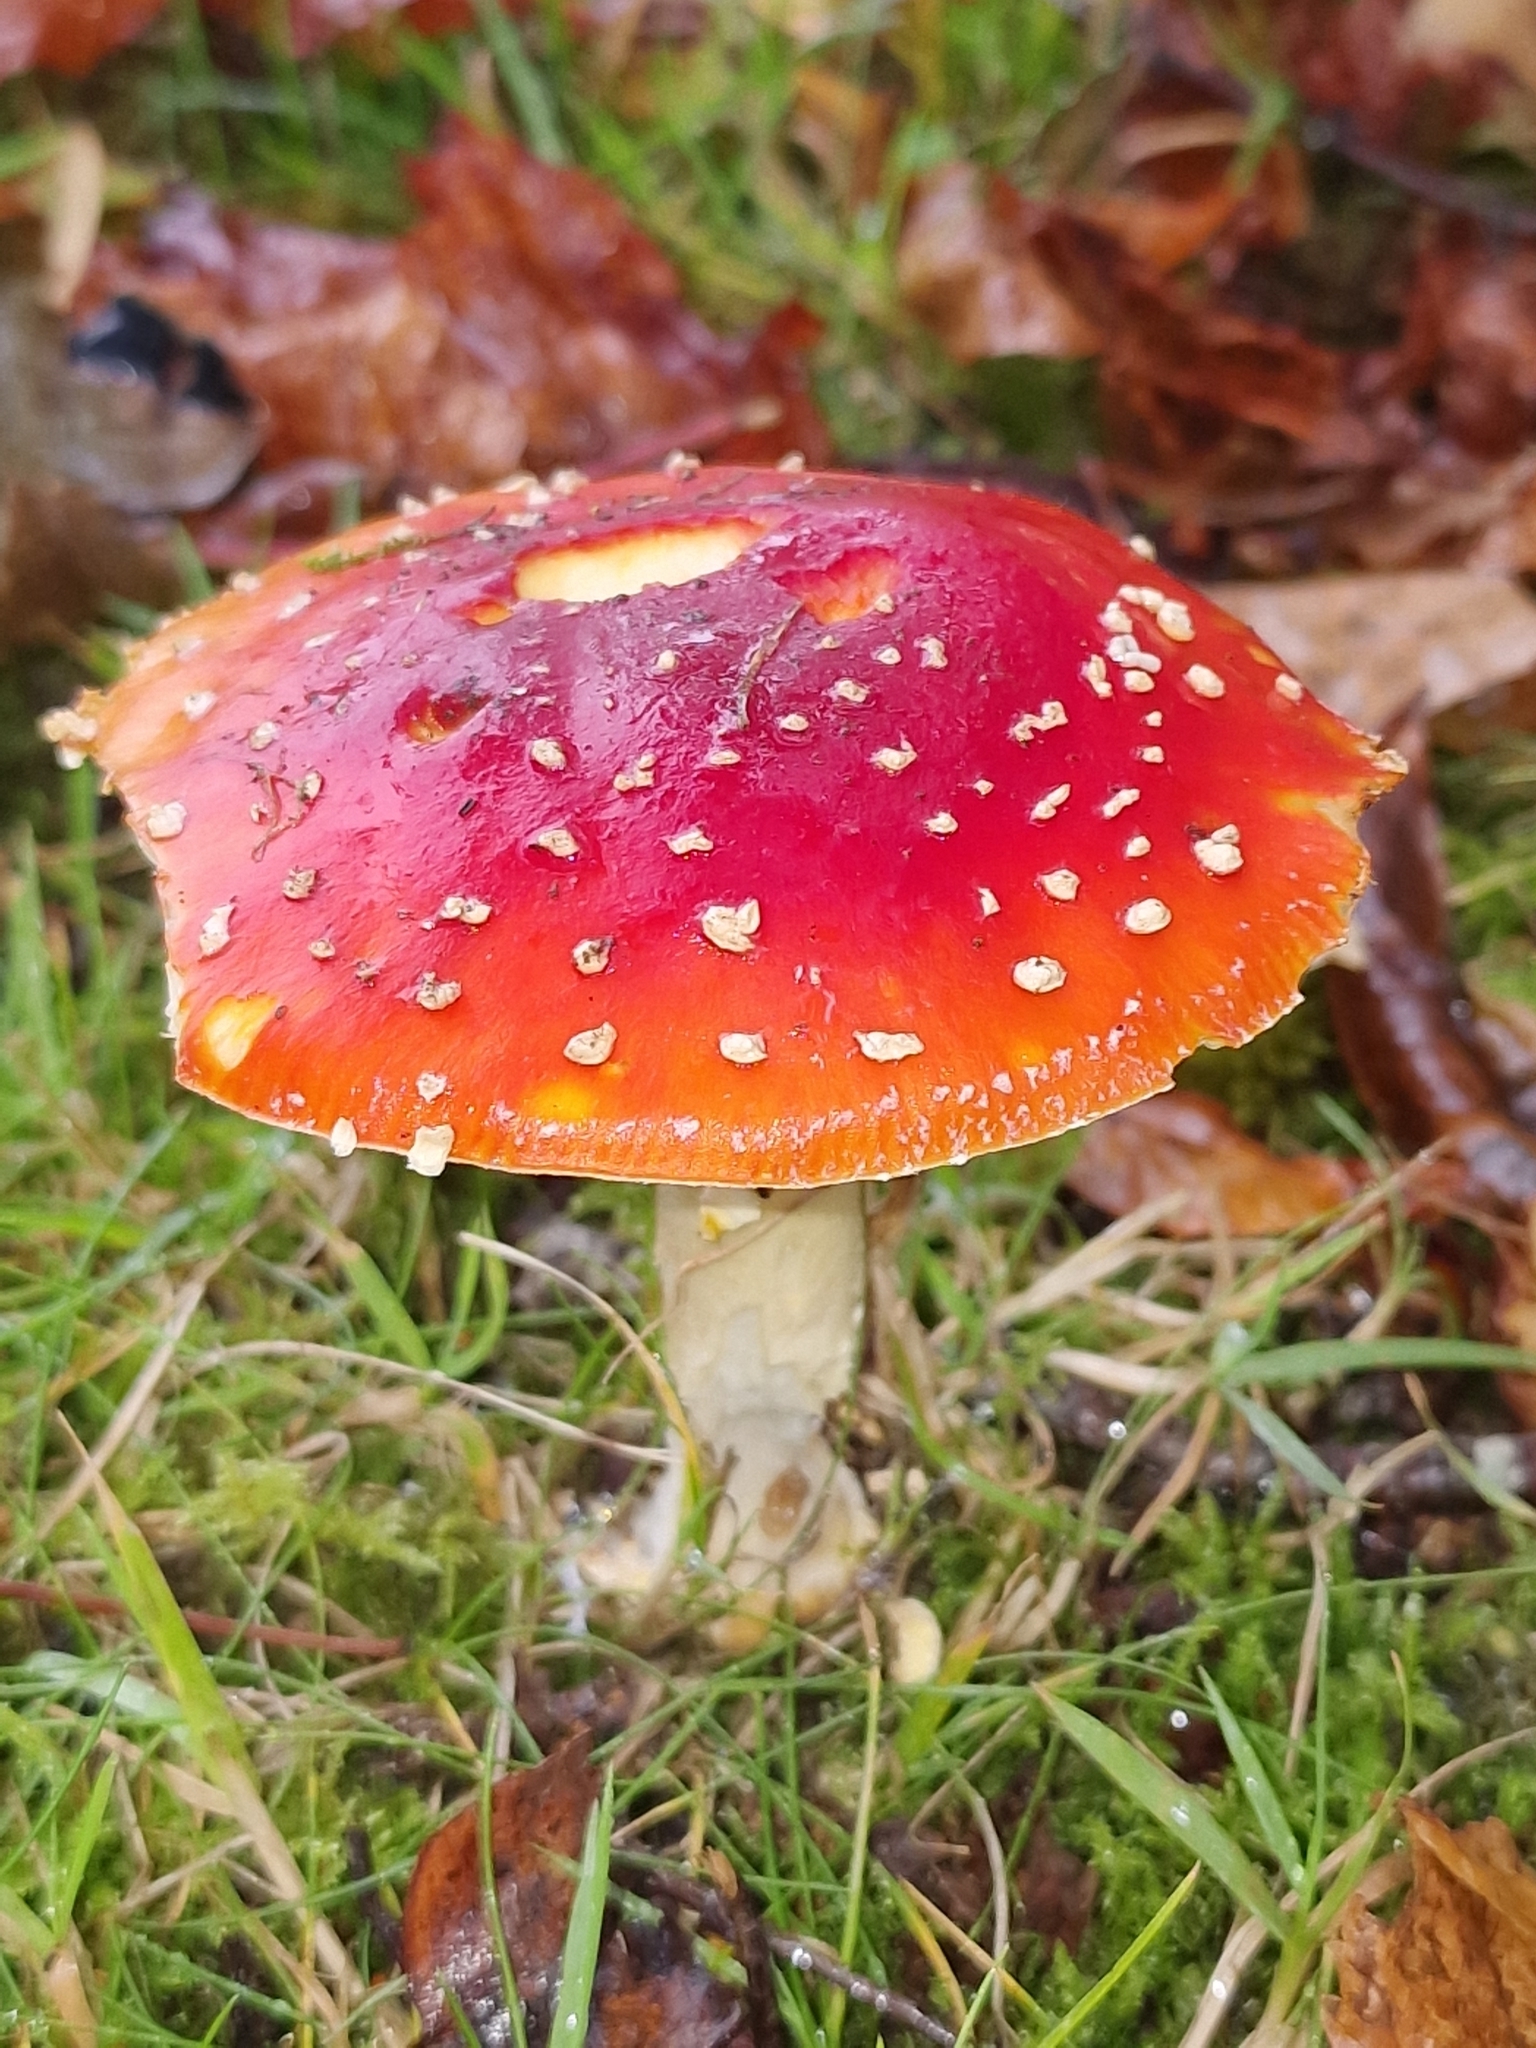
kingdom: Fungi
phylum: Basidiomycota
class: Agaricomycetes
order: Agaricales
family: Amanitaceae
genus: Amanita
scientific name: Amanita muscaria
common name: Fly agaric
